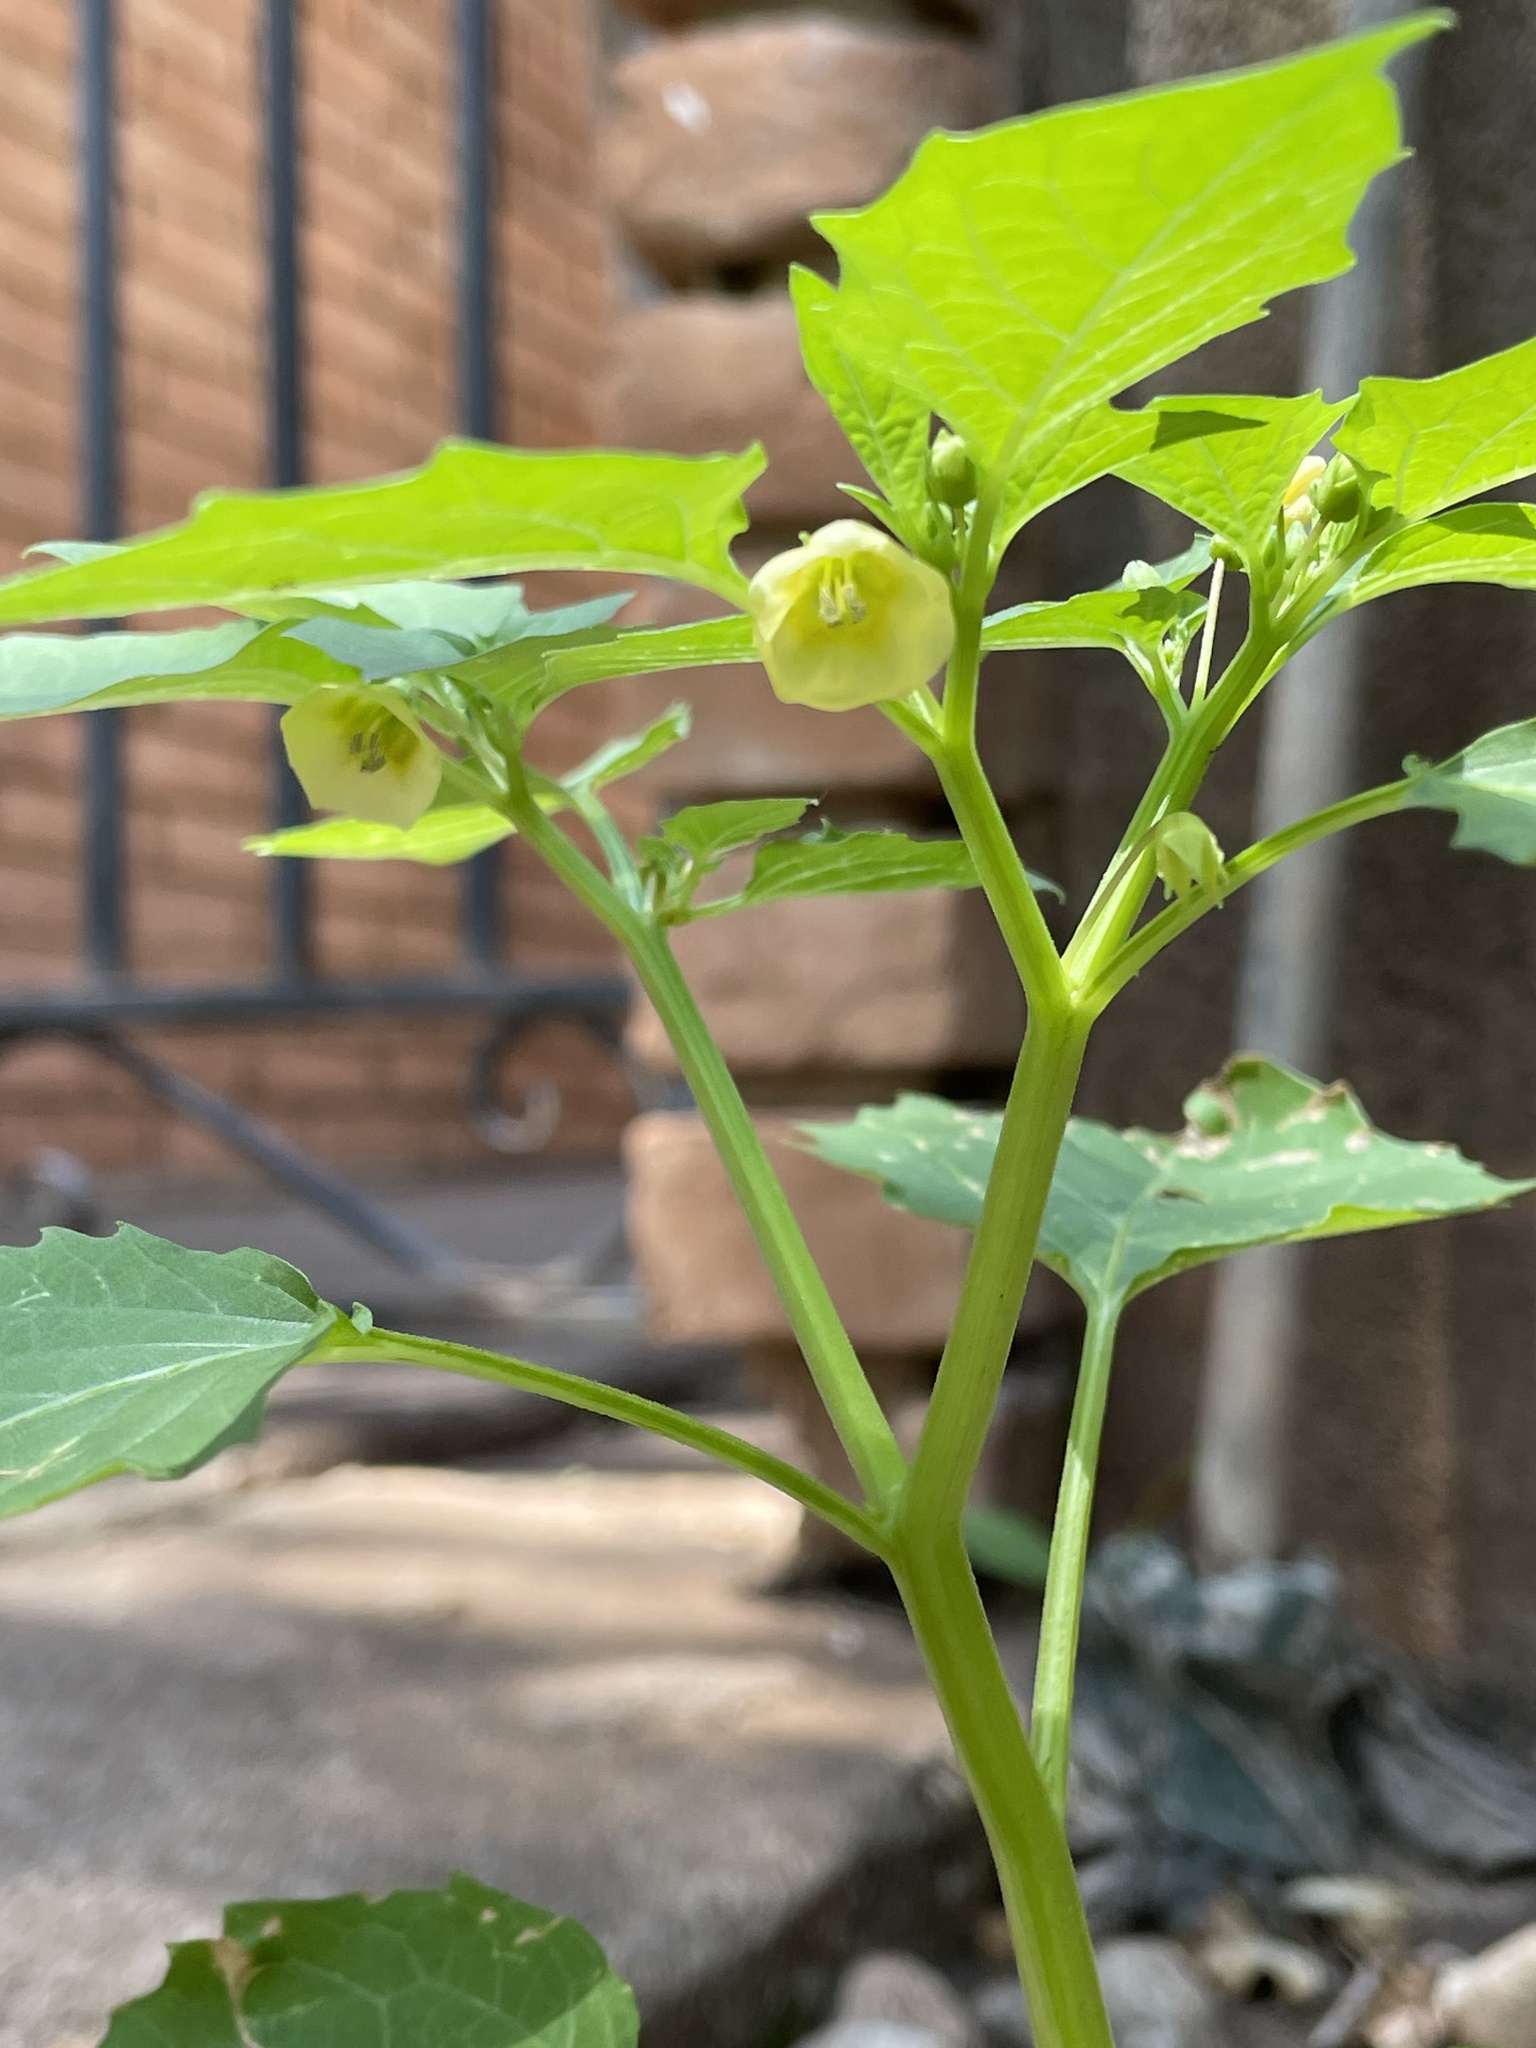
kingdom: Plantae
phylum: Tracheophyta
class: Magnoliopsida
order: Solanales
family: Solanaceae
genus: Physalis
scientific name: Physalis angulata
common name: Angular winter-cherry
